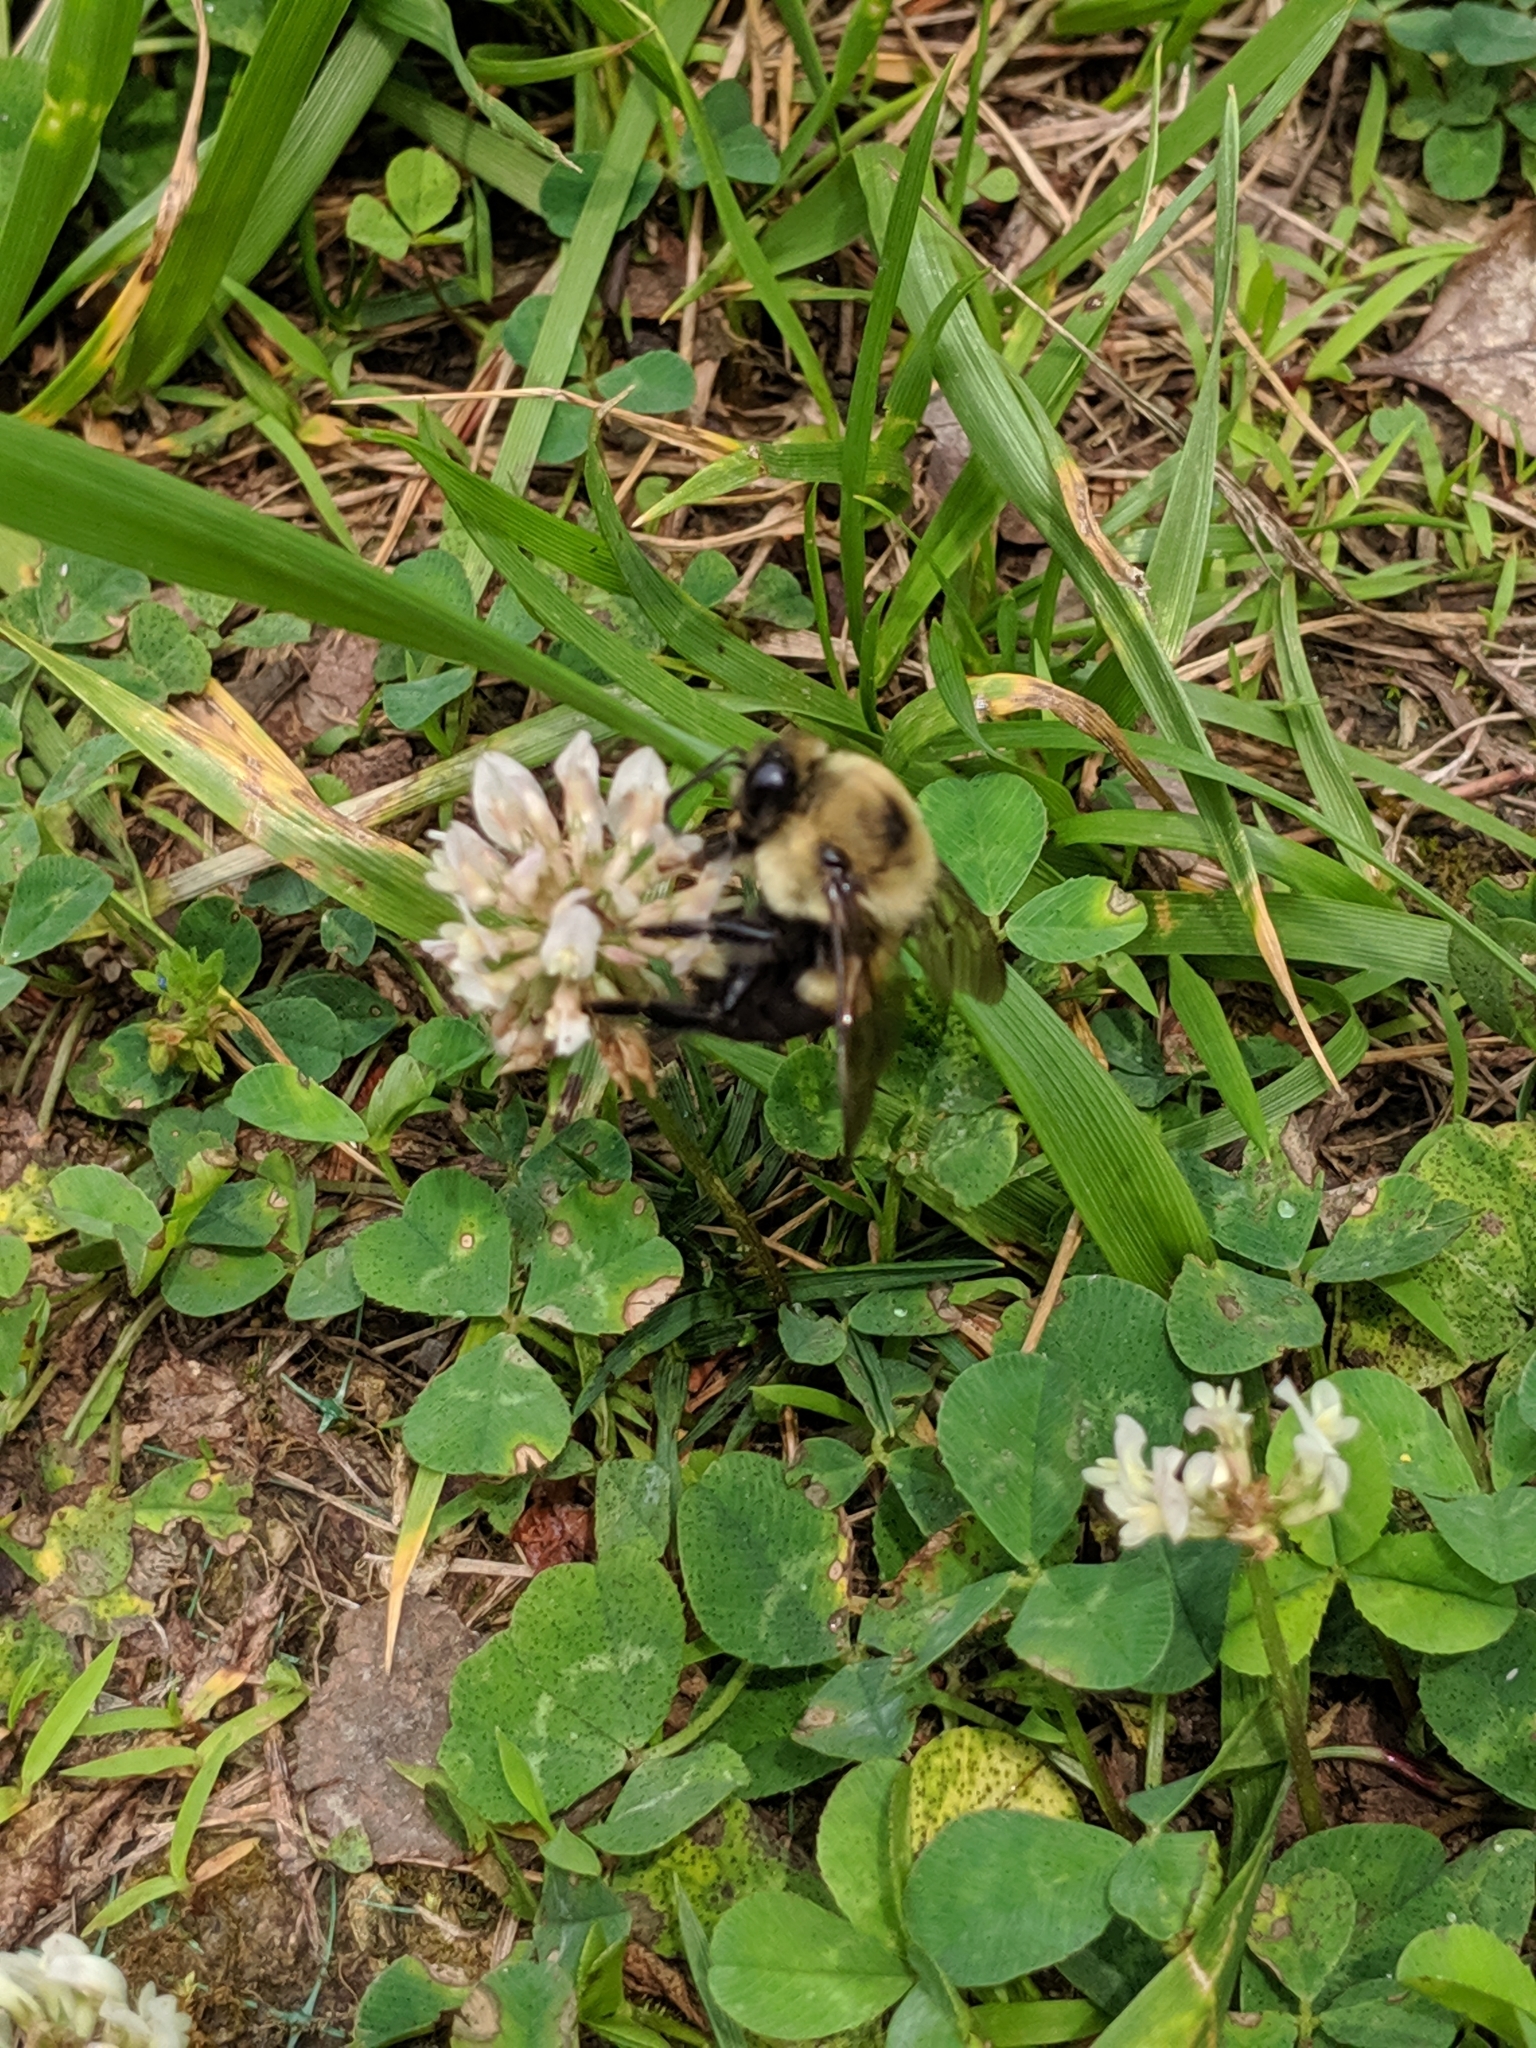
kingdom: Animalia
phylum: Arthropoda
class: Insecta
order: Hymenoptera
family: Apidae
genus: Bombus
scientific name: Bombus griseocollis
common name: Brown-belted bumble bee
